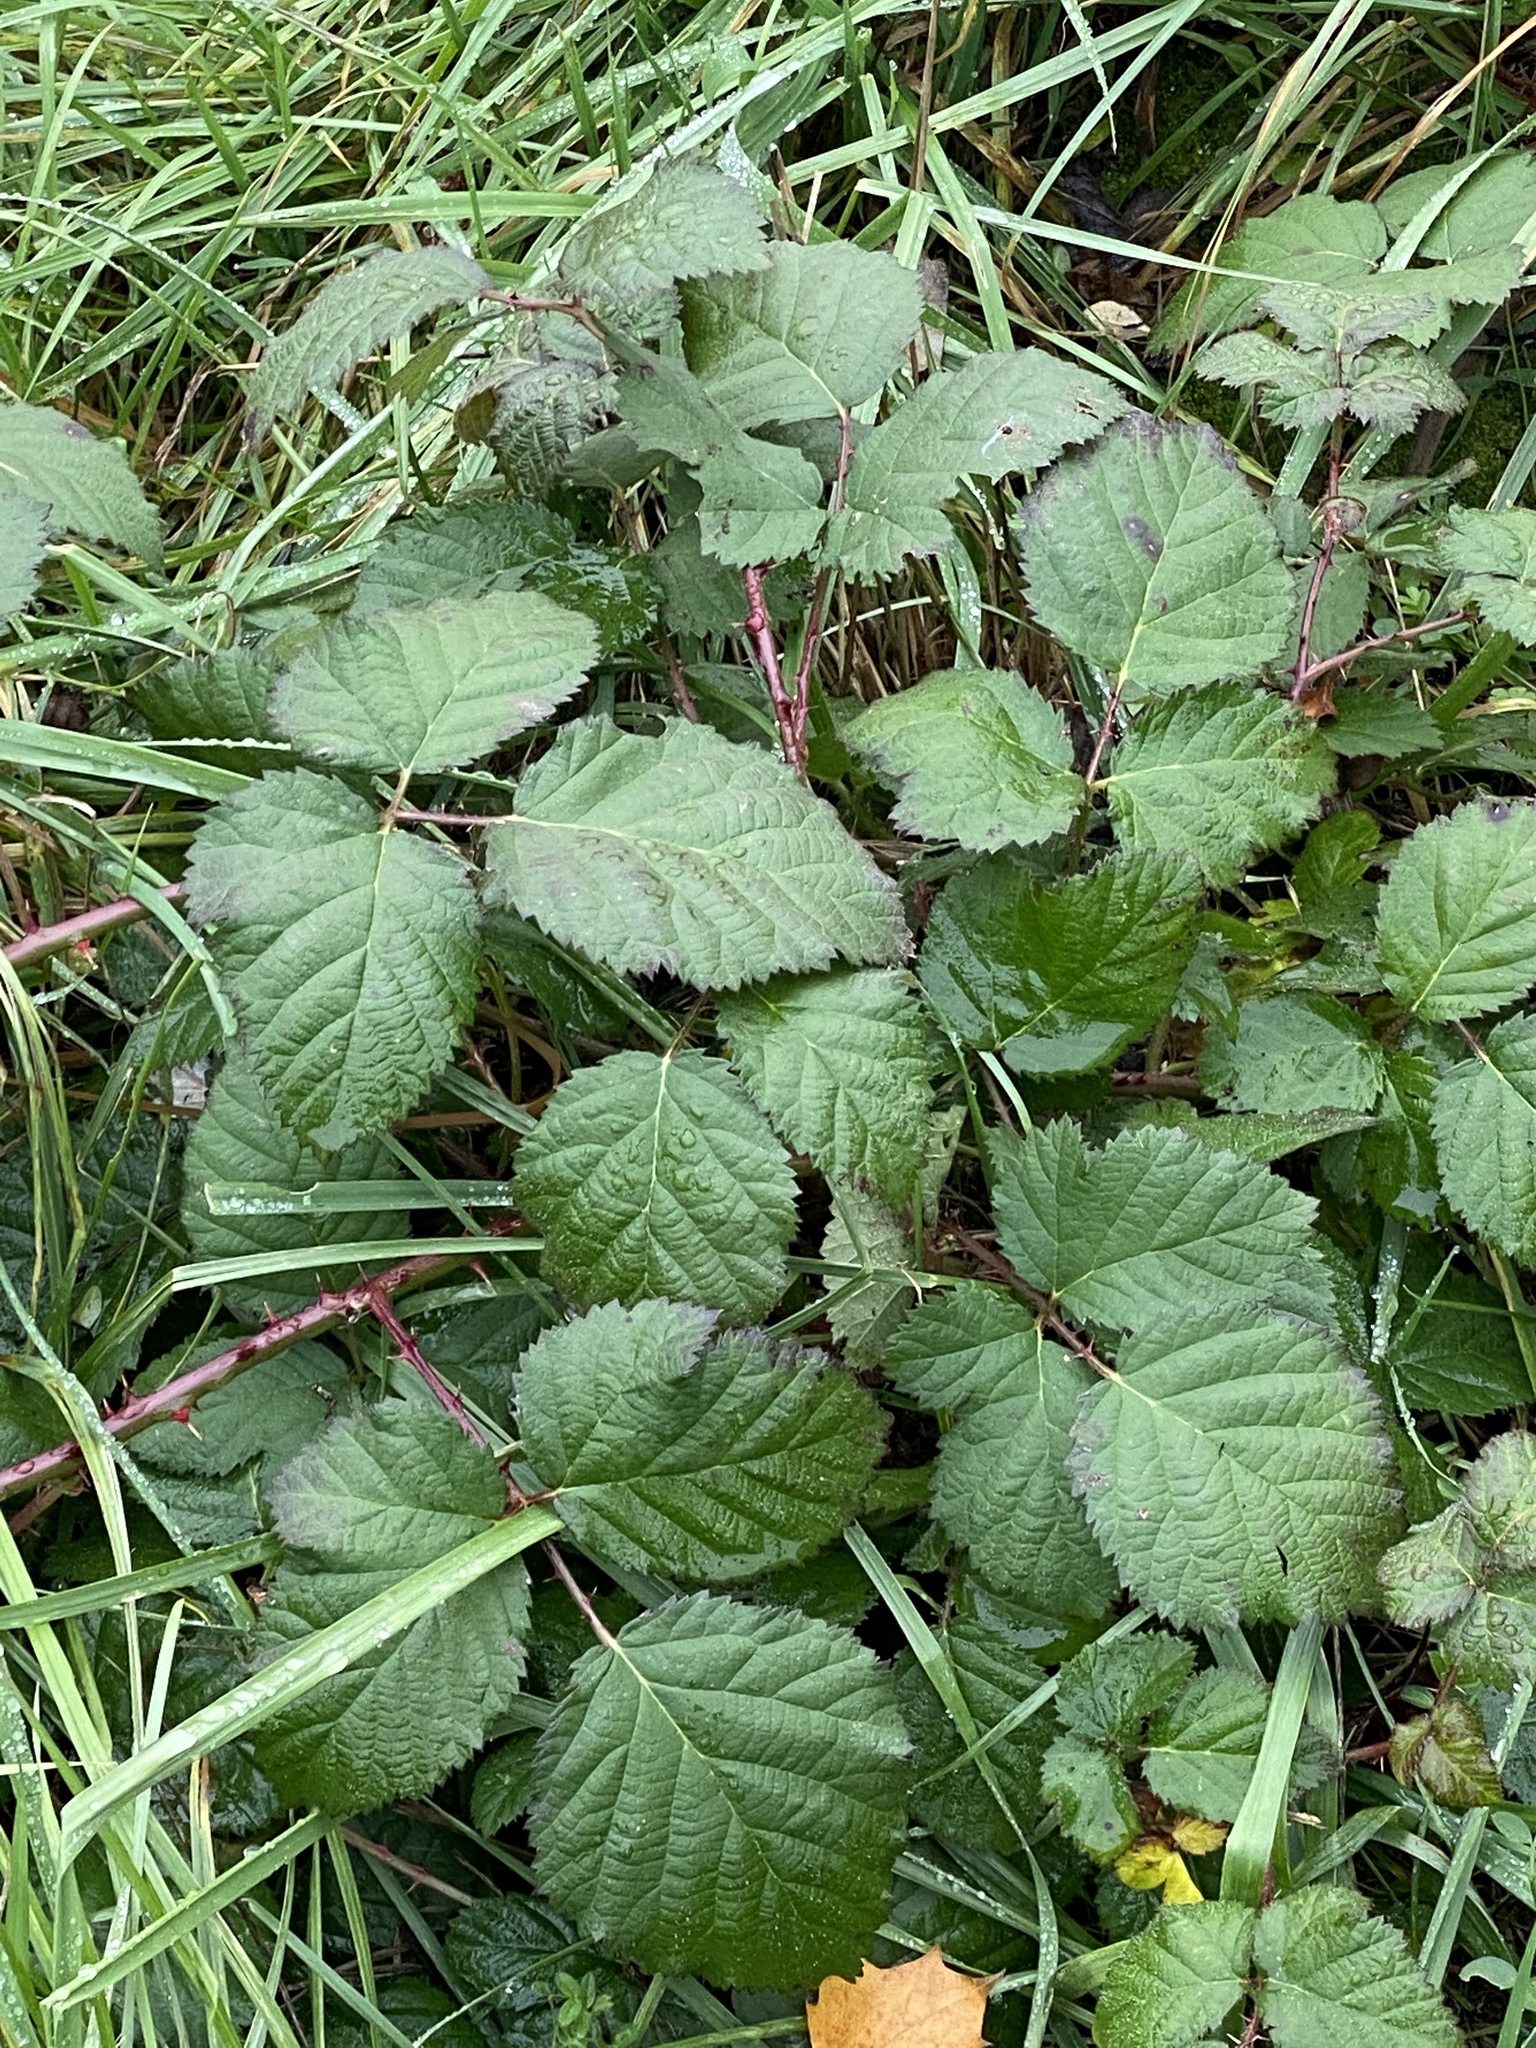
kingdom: Plantae
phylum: Tracheophyta
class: Magnoliopsida
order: Rosales
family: Rosaceae
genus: Rubus
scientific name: Rubus bifrons
